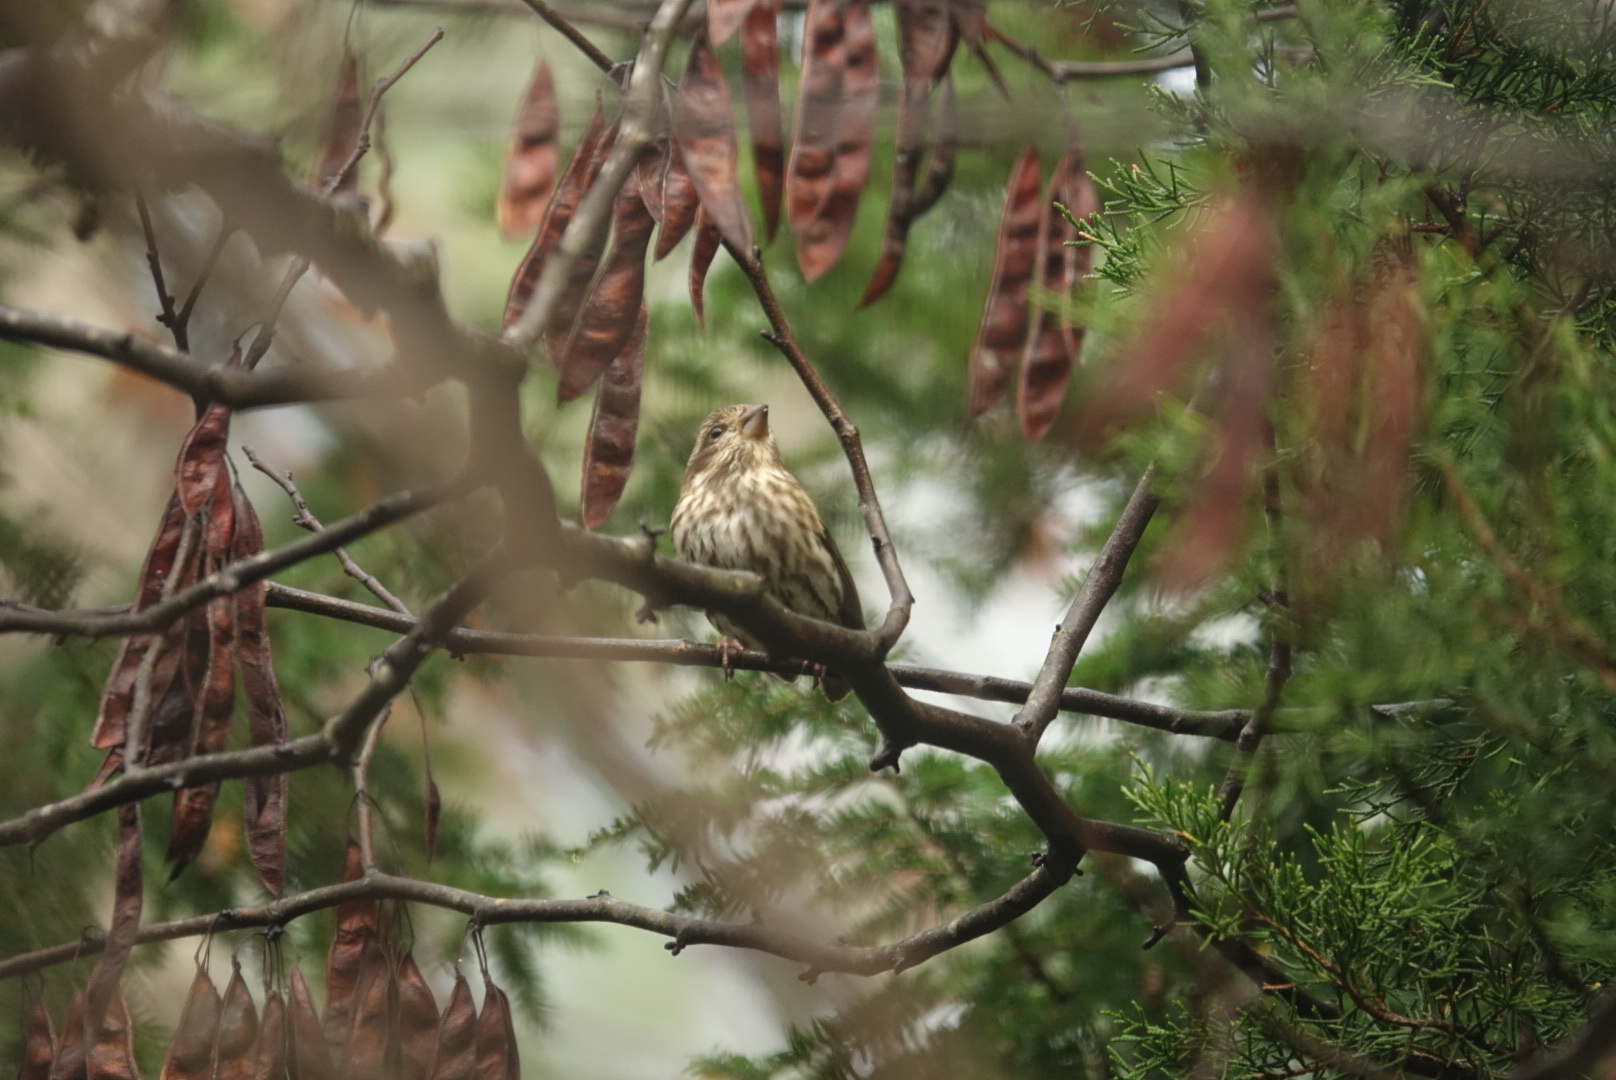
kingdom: Animalia
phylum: Chordata
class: Aves
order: Passeriformes
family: Fringillidae
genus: Haemorhous
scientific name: Haemorhous purpureus
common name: Purple finch
